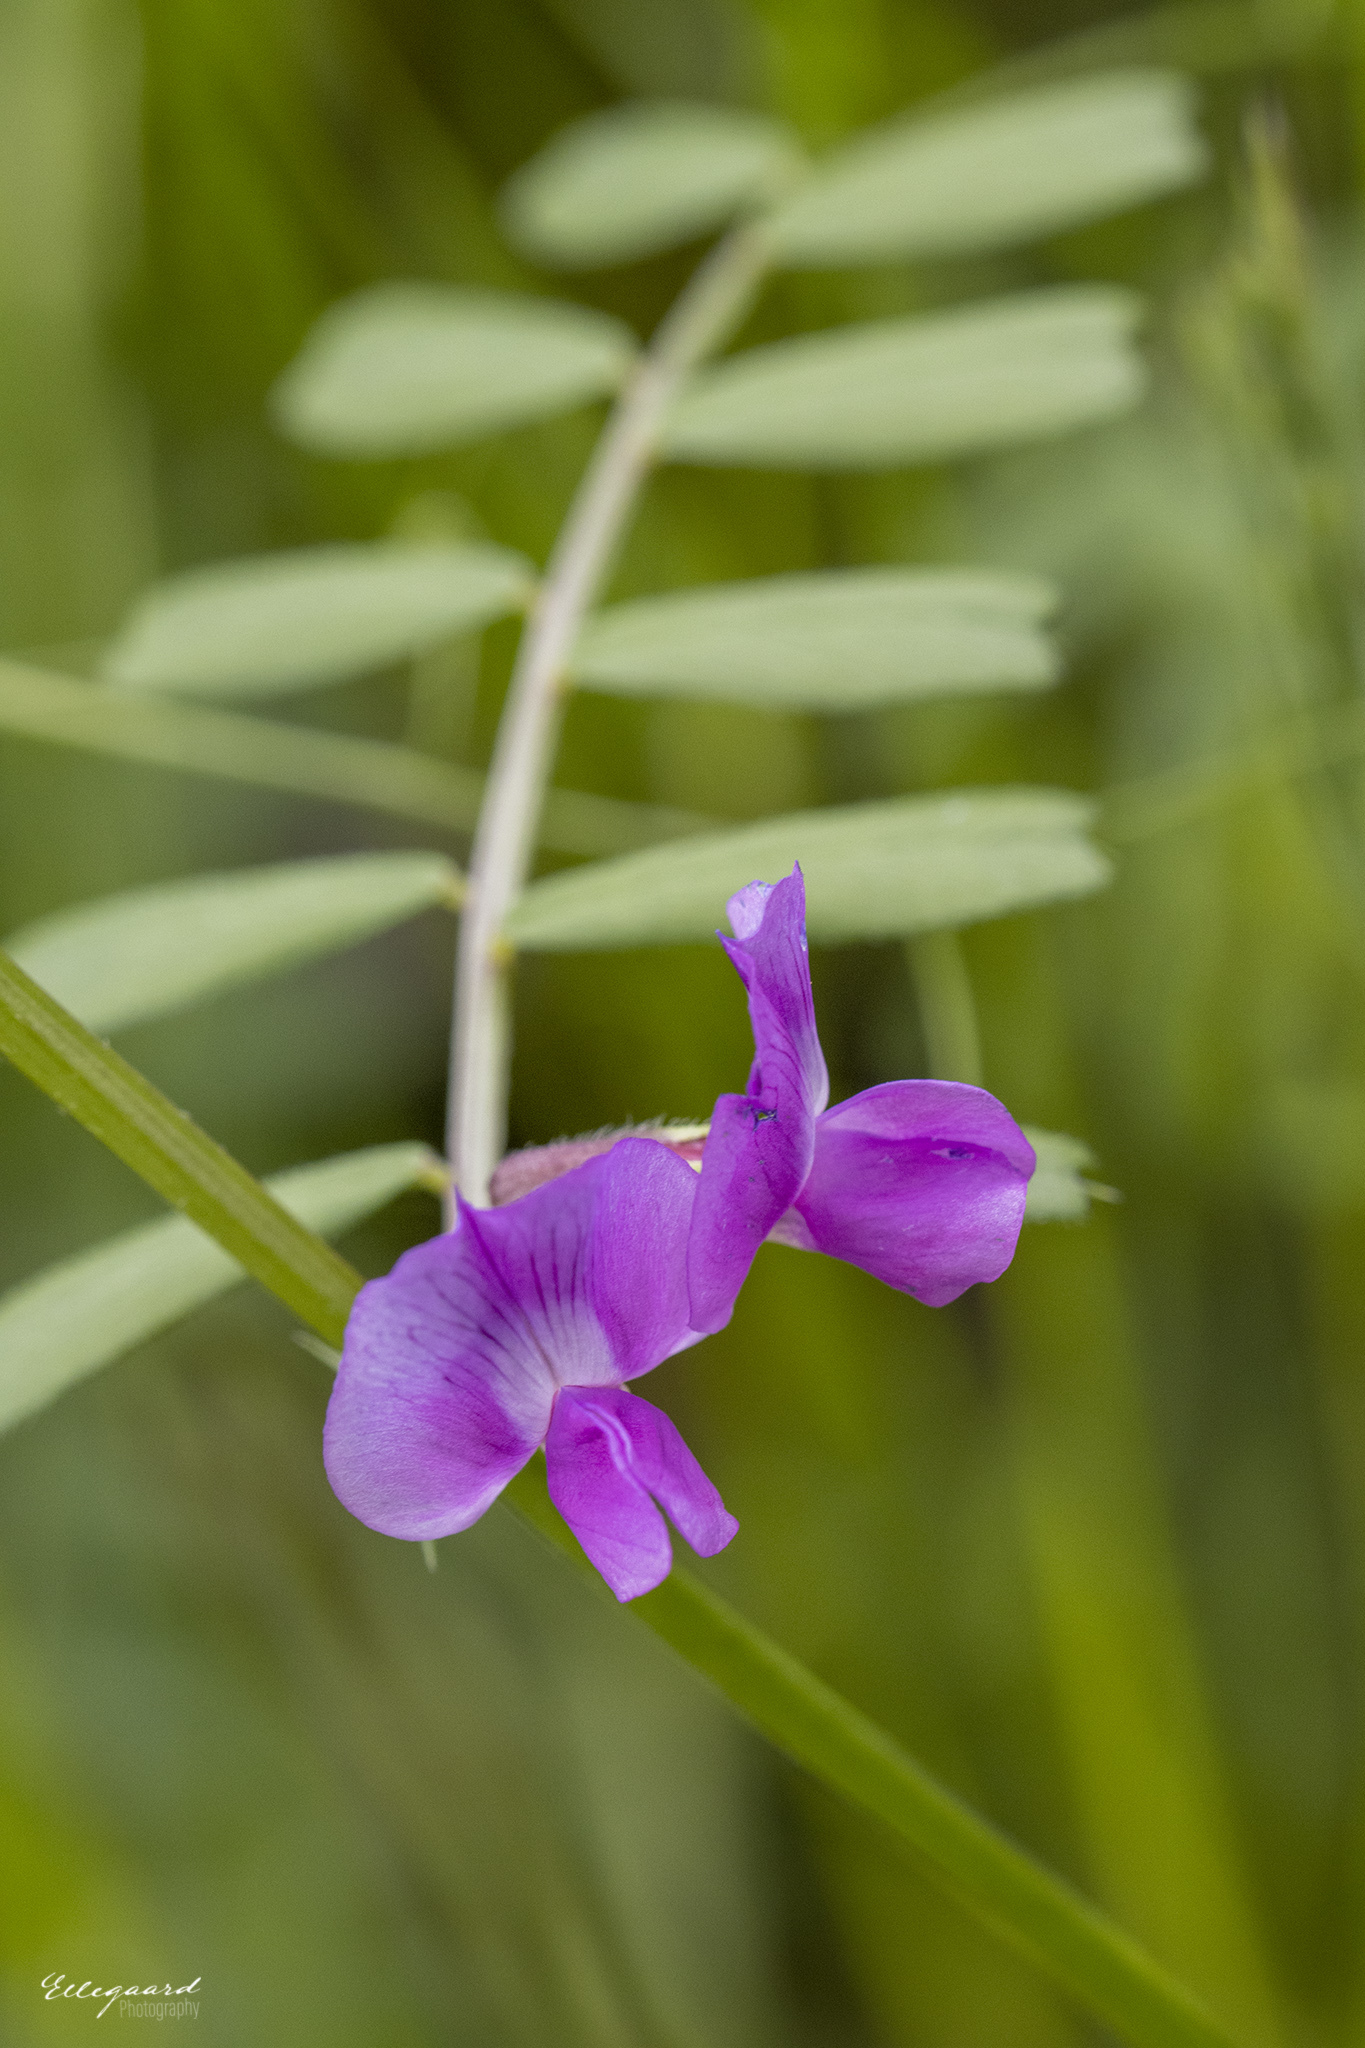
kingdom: Plantae
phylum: Tracheophyta
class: Magnoliopsida
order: Fabales
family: Fabaceae
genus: Vicia
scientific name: Vicia sativa
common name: Garden vetch
